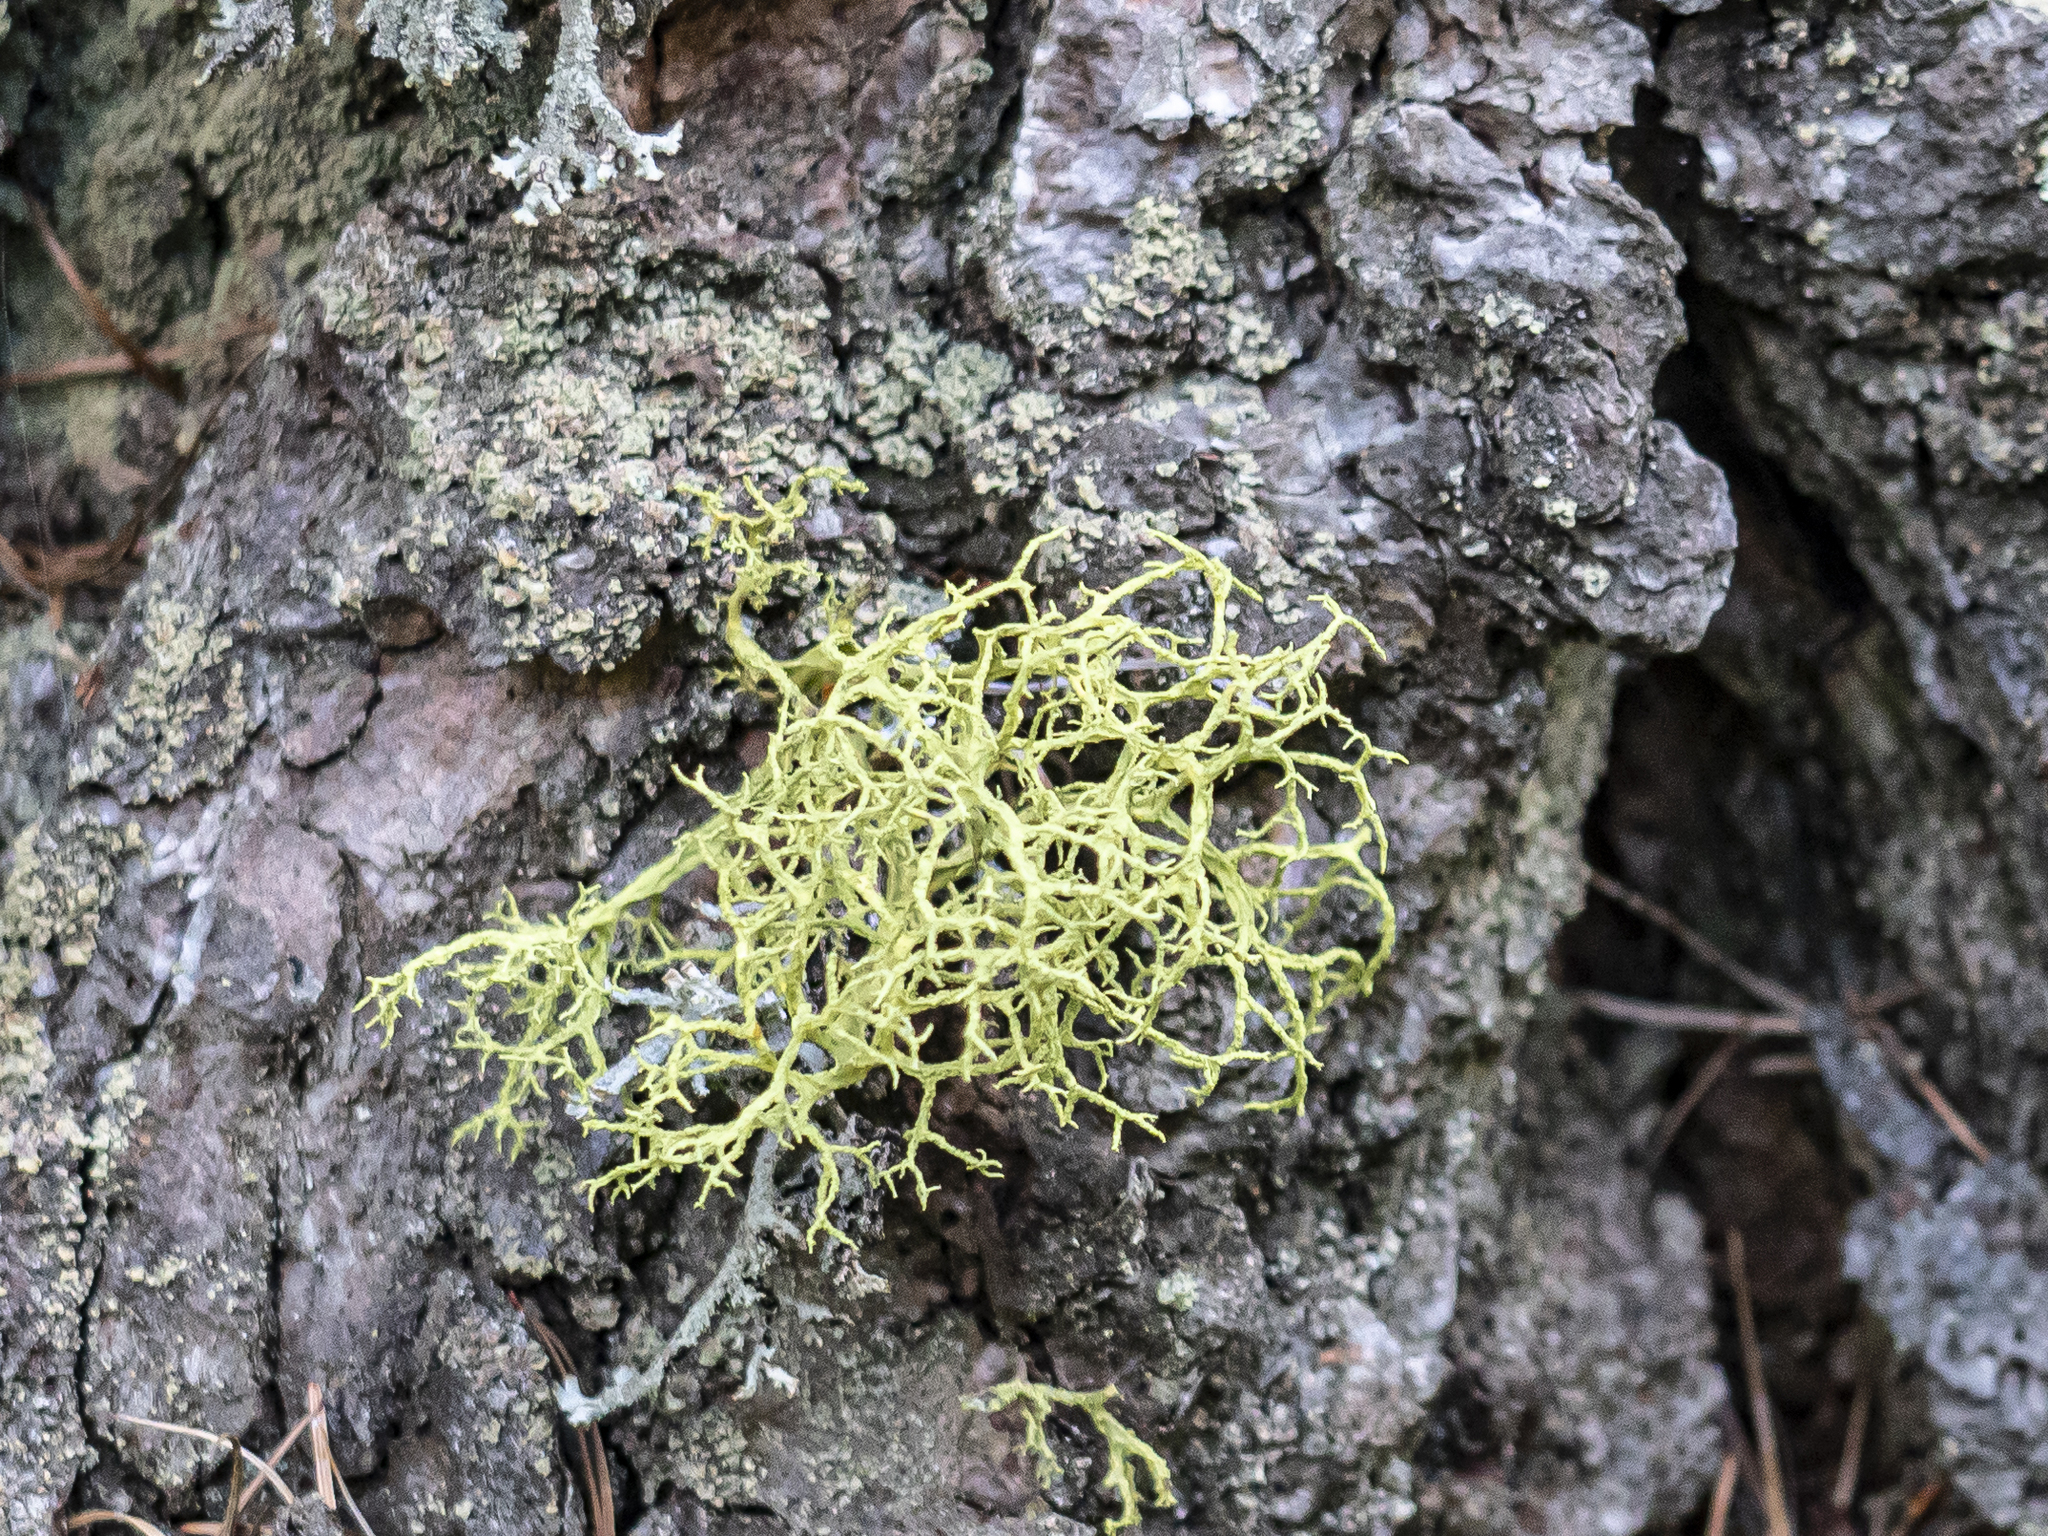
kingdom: Fungi
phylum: Ascomycota
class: Lecanoromycetes
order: Lecanorales
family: Parmeliaceae
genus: Letharia
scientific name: Letharia vulpina
